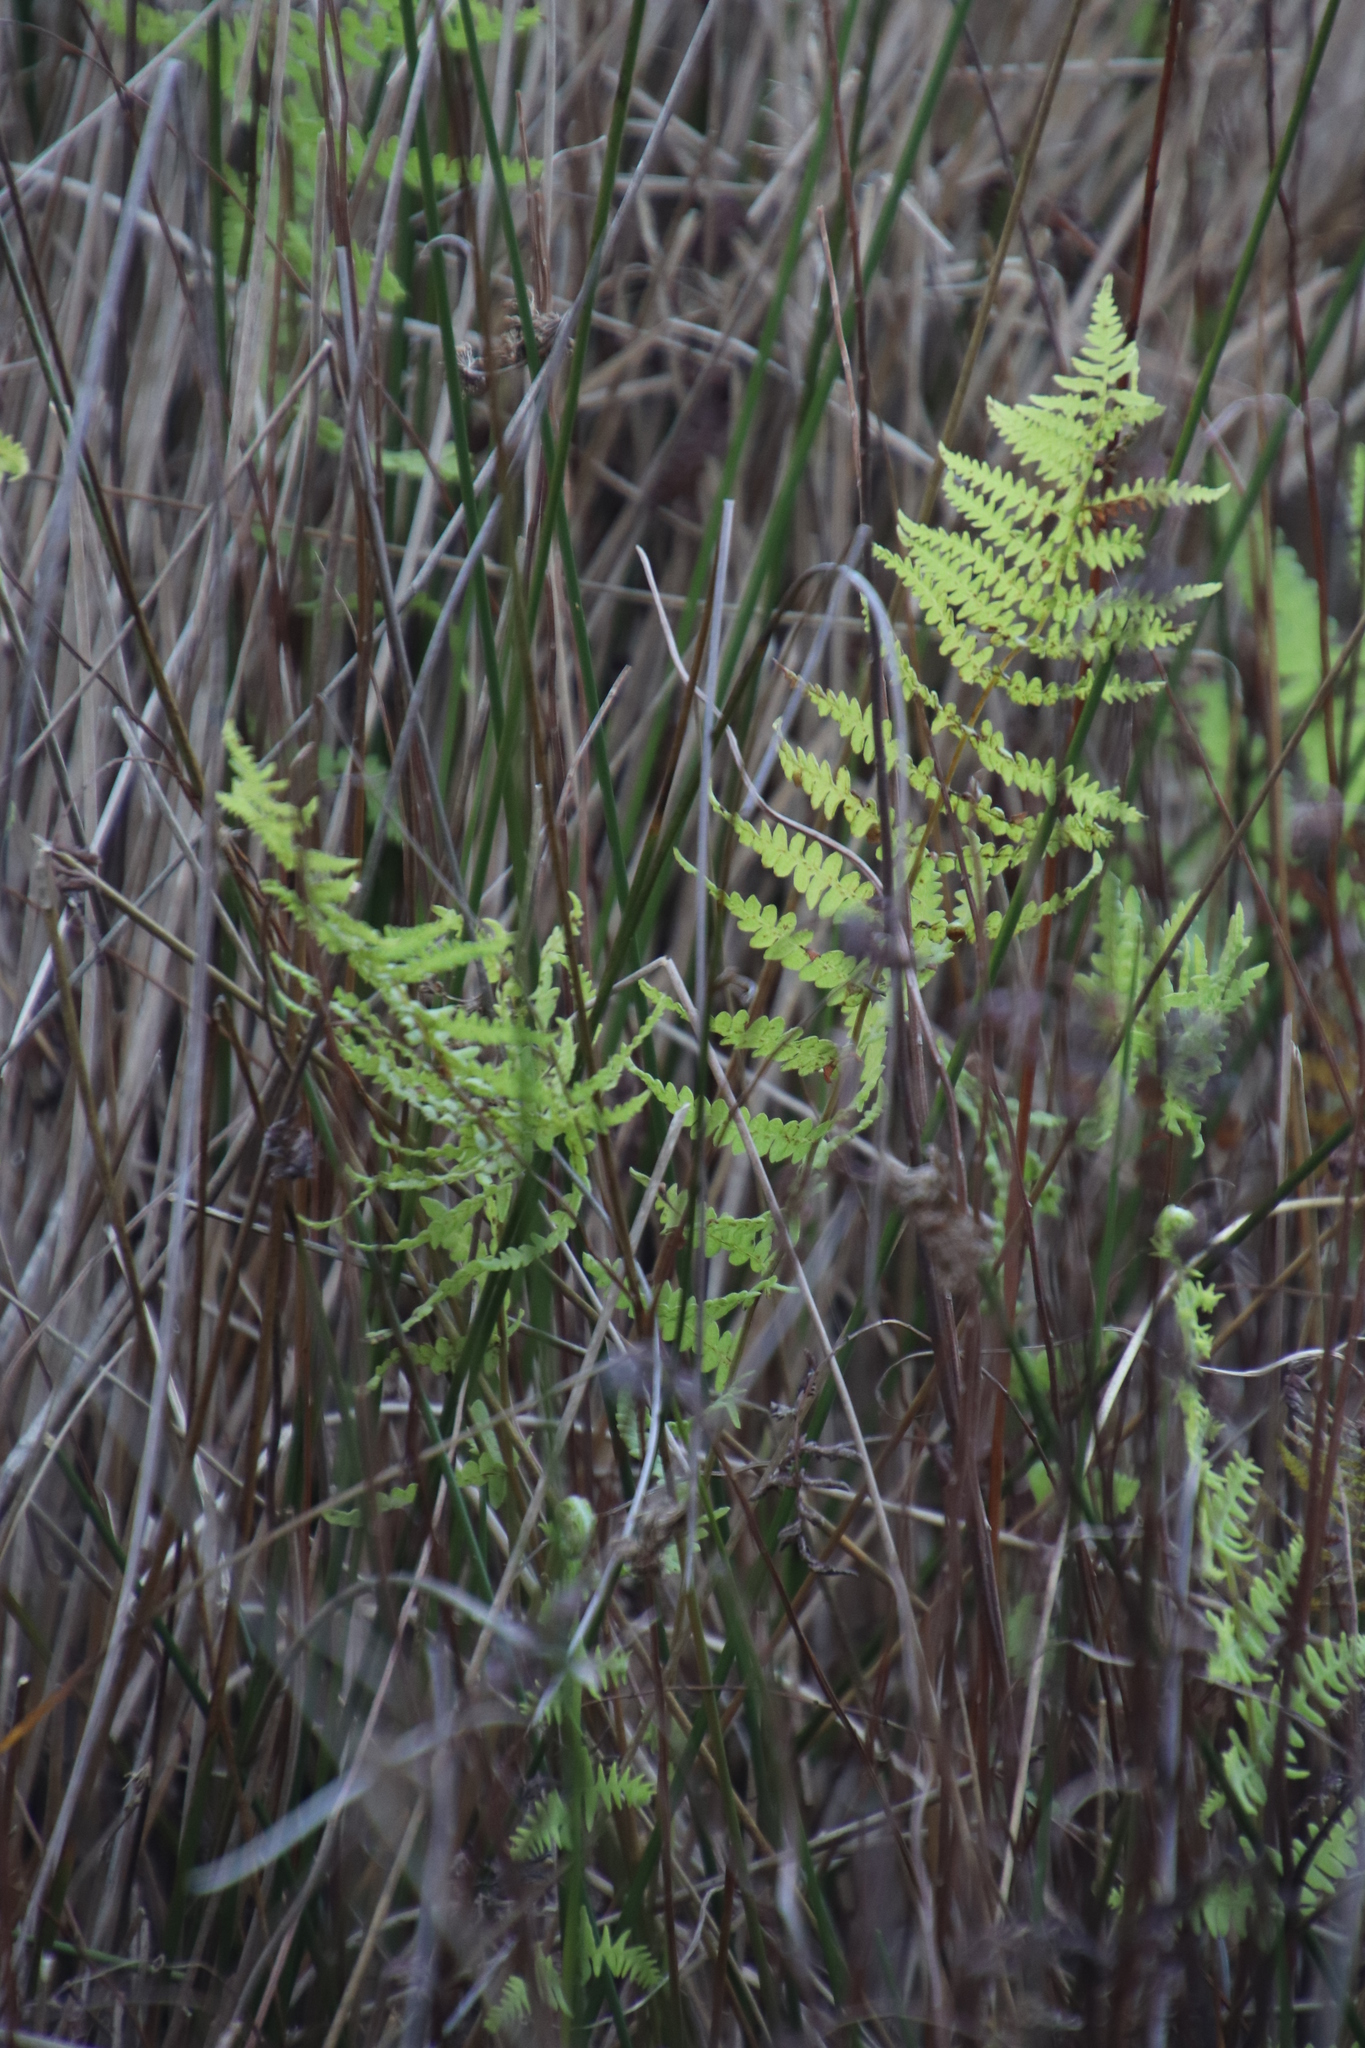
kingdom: Plantae
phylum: Tracheophyta
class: Polypodiopsida
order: Polypodiales
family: Thelypteridaceae
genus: Thelypteris
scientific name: Thelypteris confluens
